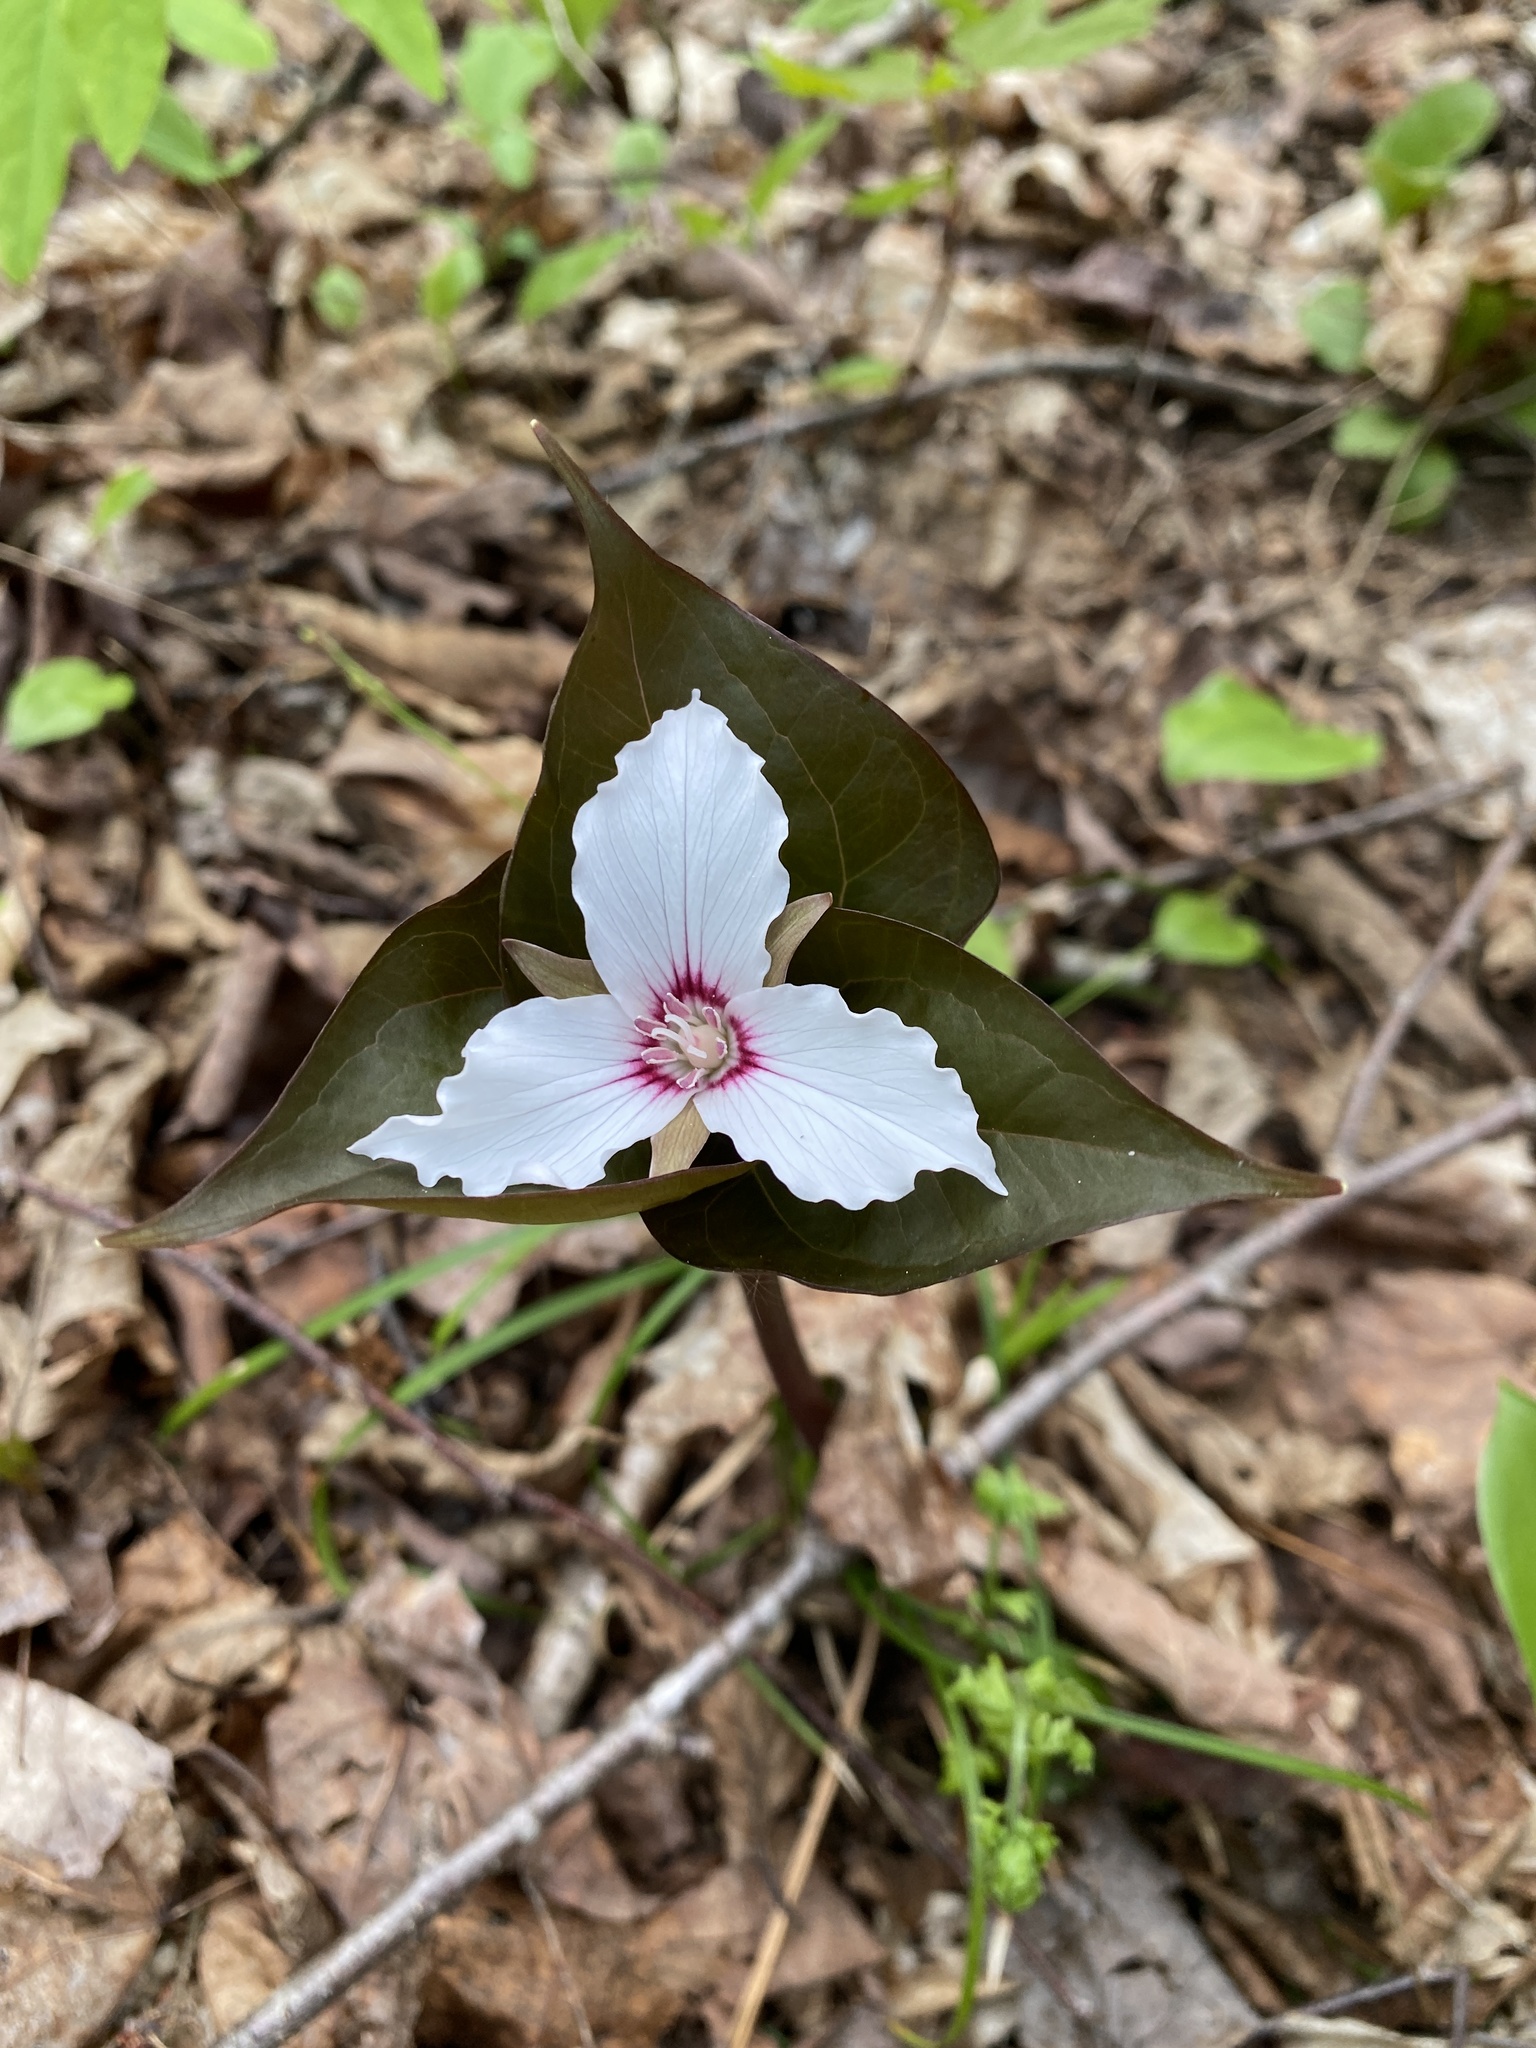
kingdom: Plantae
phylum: Tracheophyta
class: Liliopsida
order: Liliales
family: Melanthiaceae
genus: Trillium
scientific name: Trillium undulatum
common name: Paint trillium
